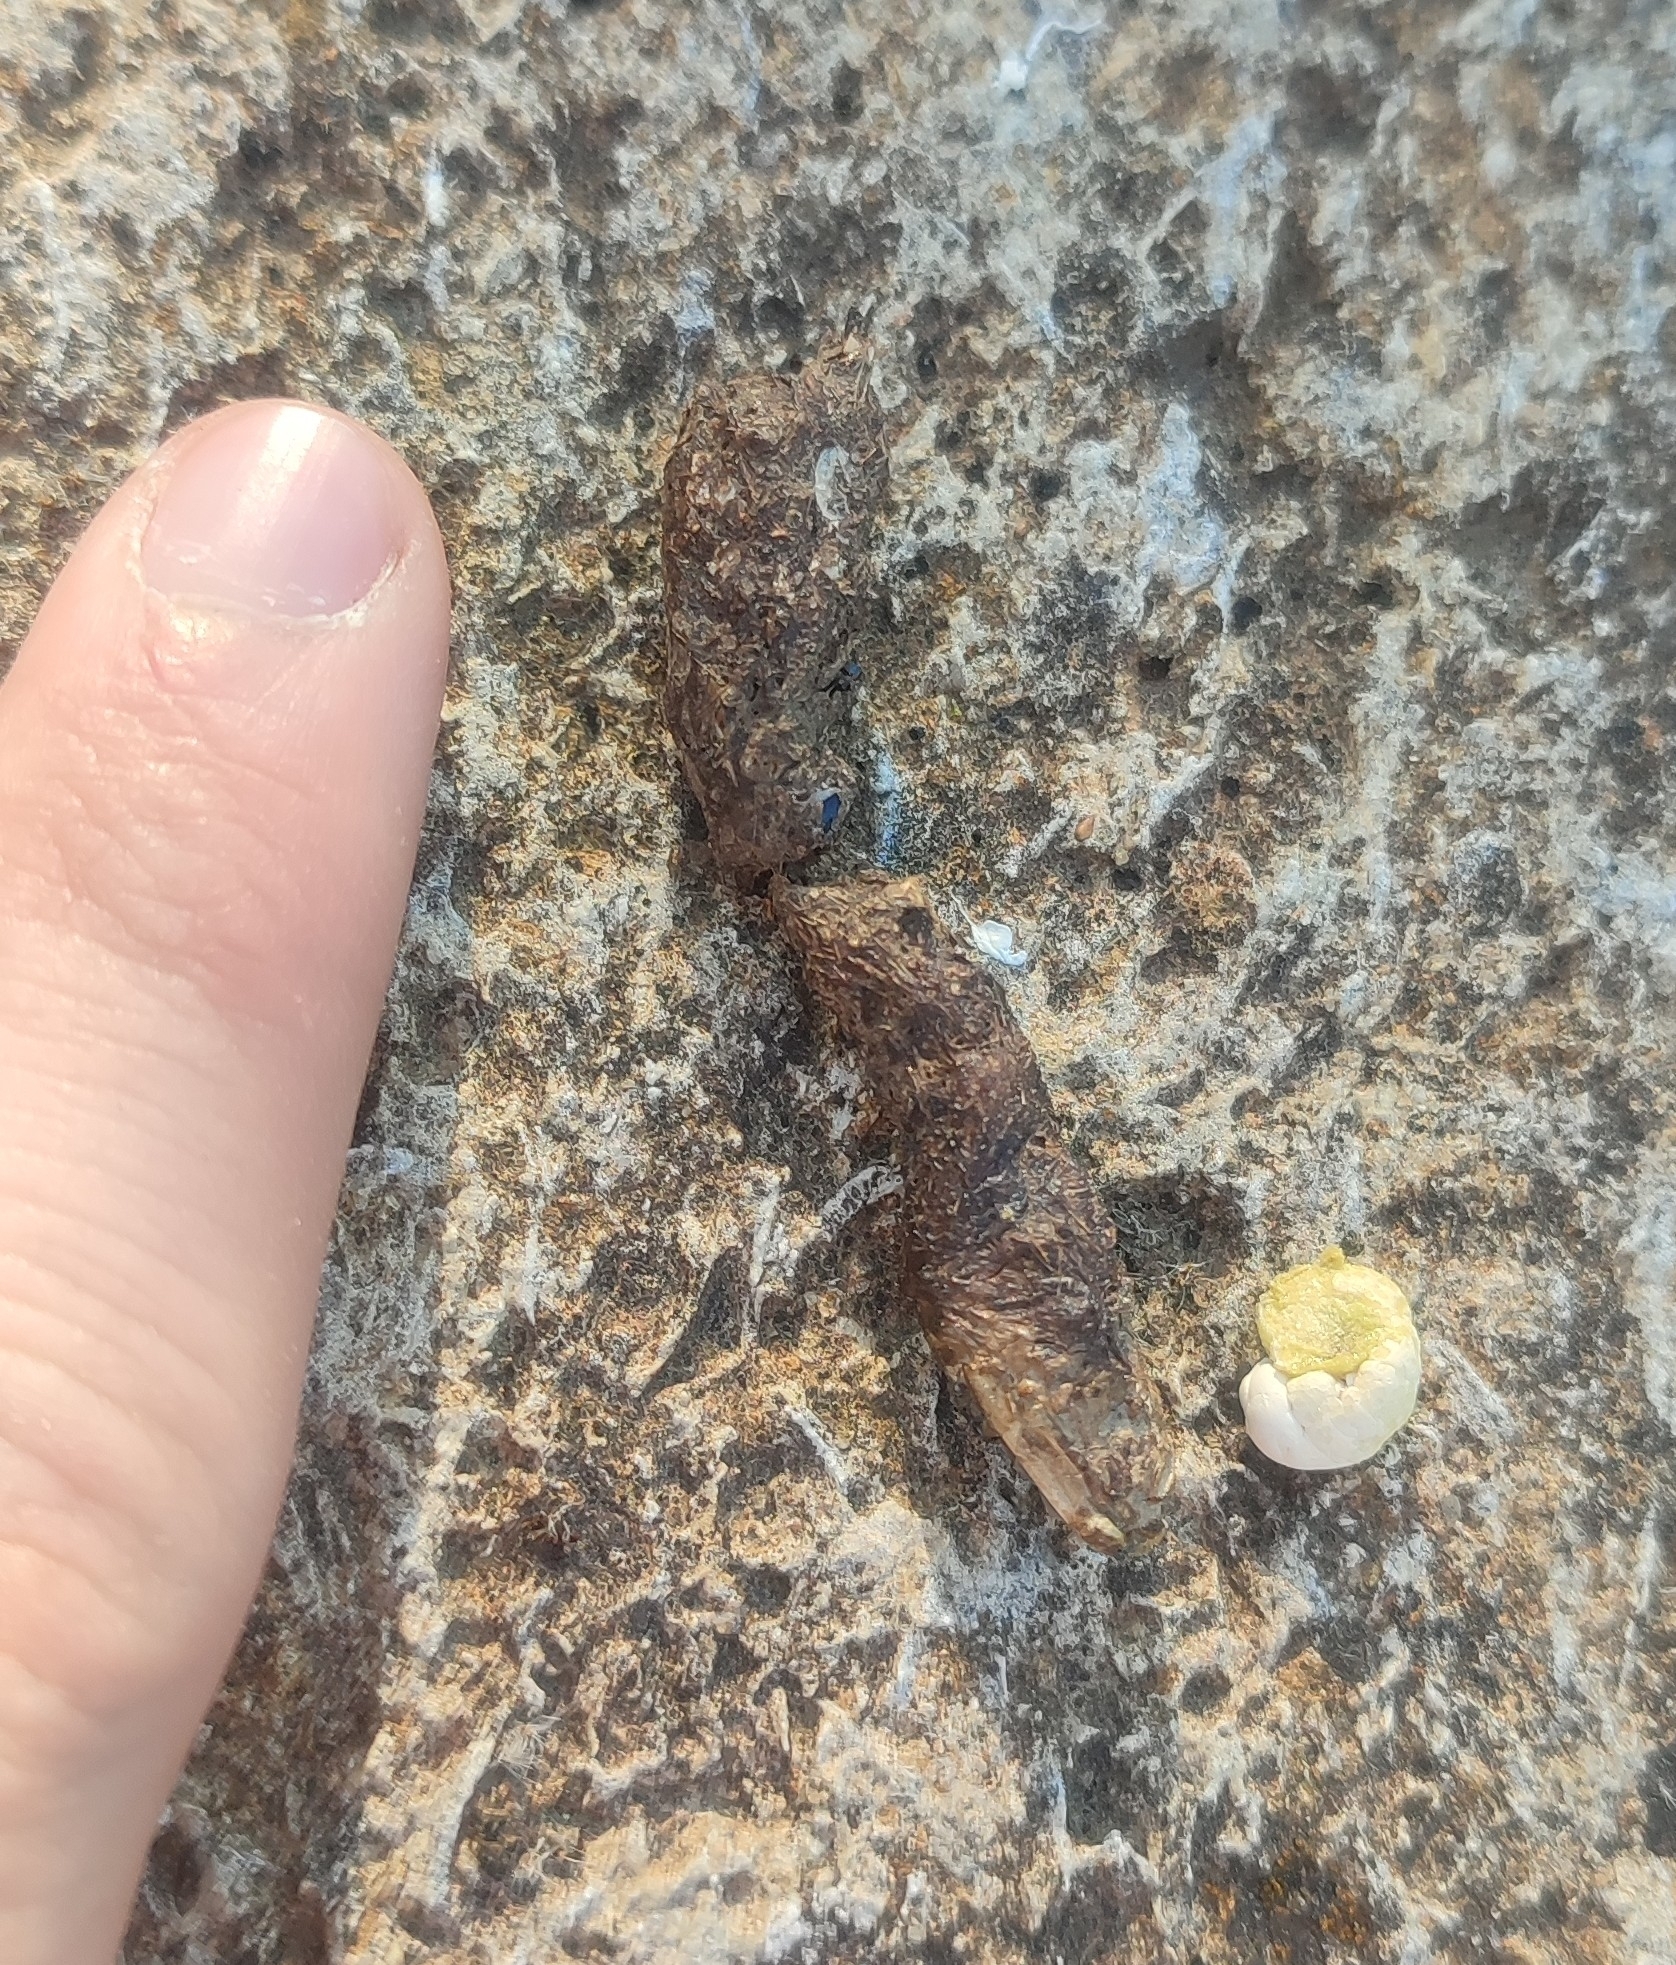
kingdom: Animalia
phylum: Chordata
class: Squamata
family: Lacertidae
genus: Timon
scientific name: Timon lepidus
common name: Ocellated lizard
